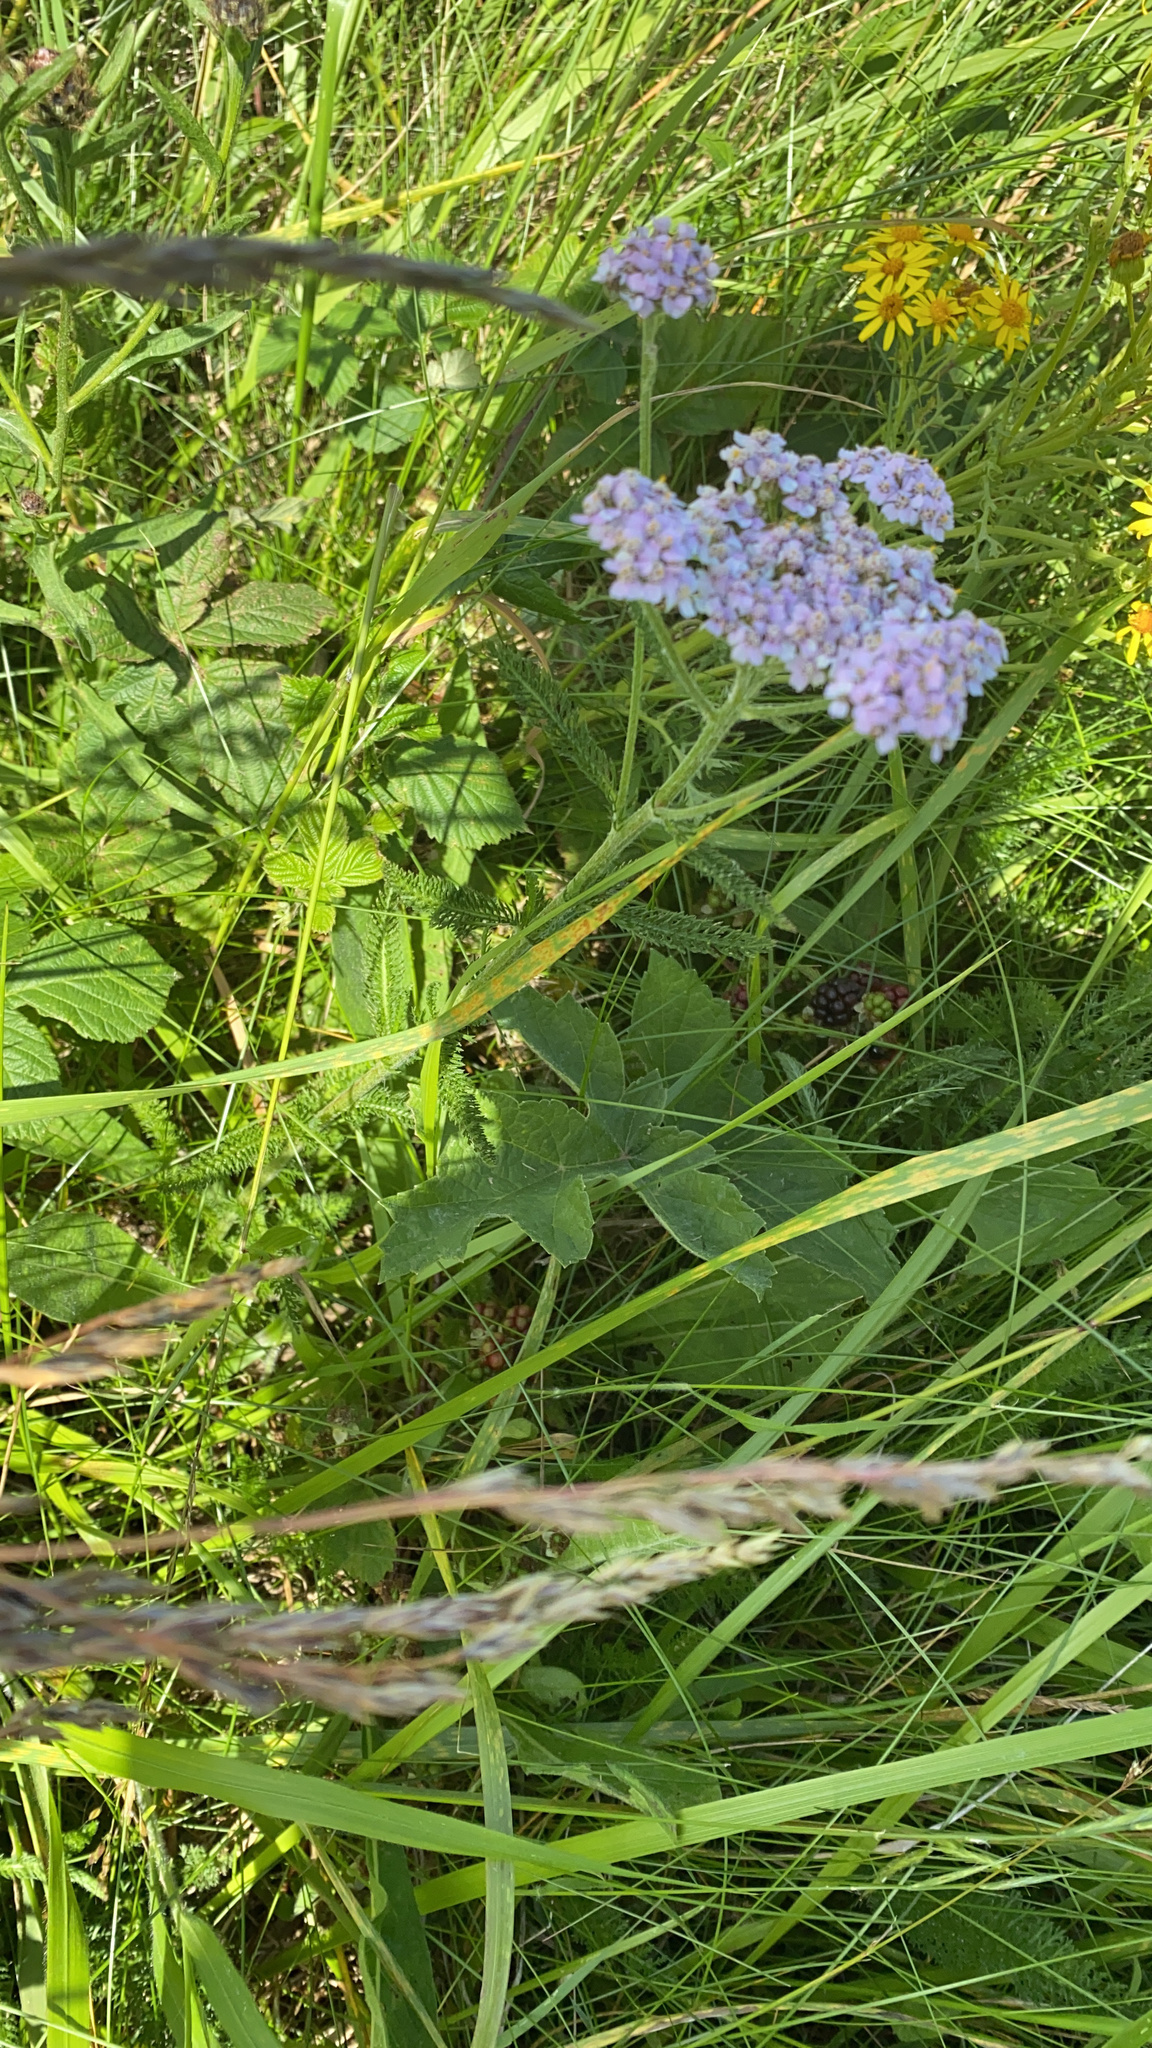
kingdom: Plantae
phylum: Tracheophyta
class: Magnoliopsida
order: Asterales
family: Asteraceae
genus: Achillea
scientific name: Achillea millefolium
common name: Yarrow
